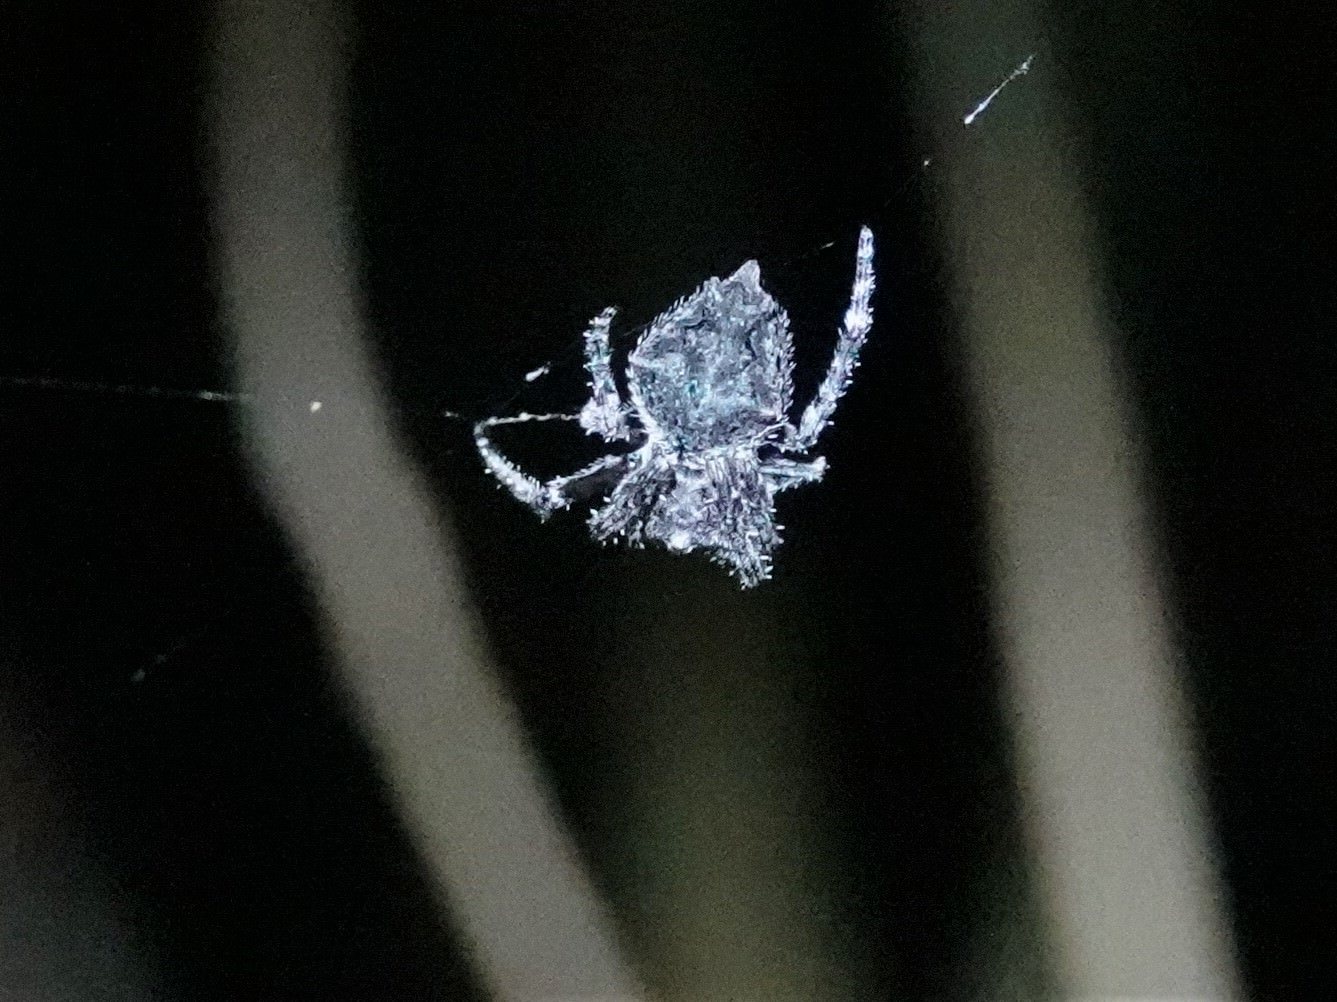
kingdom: Animalia
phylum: Arthropoda
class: Arachnida
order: Araneae
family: Araneidae
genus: Eriophora
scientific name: Eriophora pustulosa
